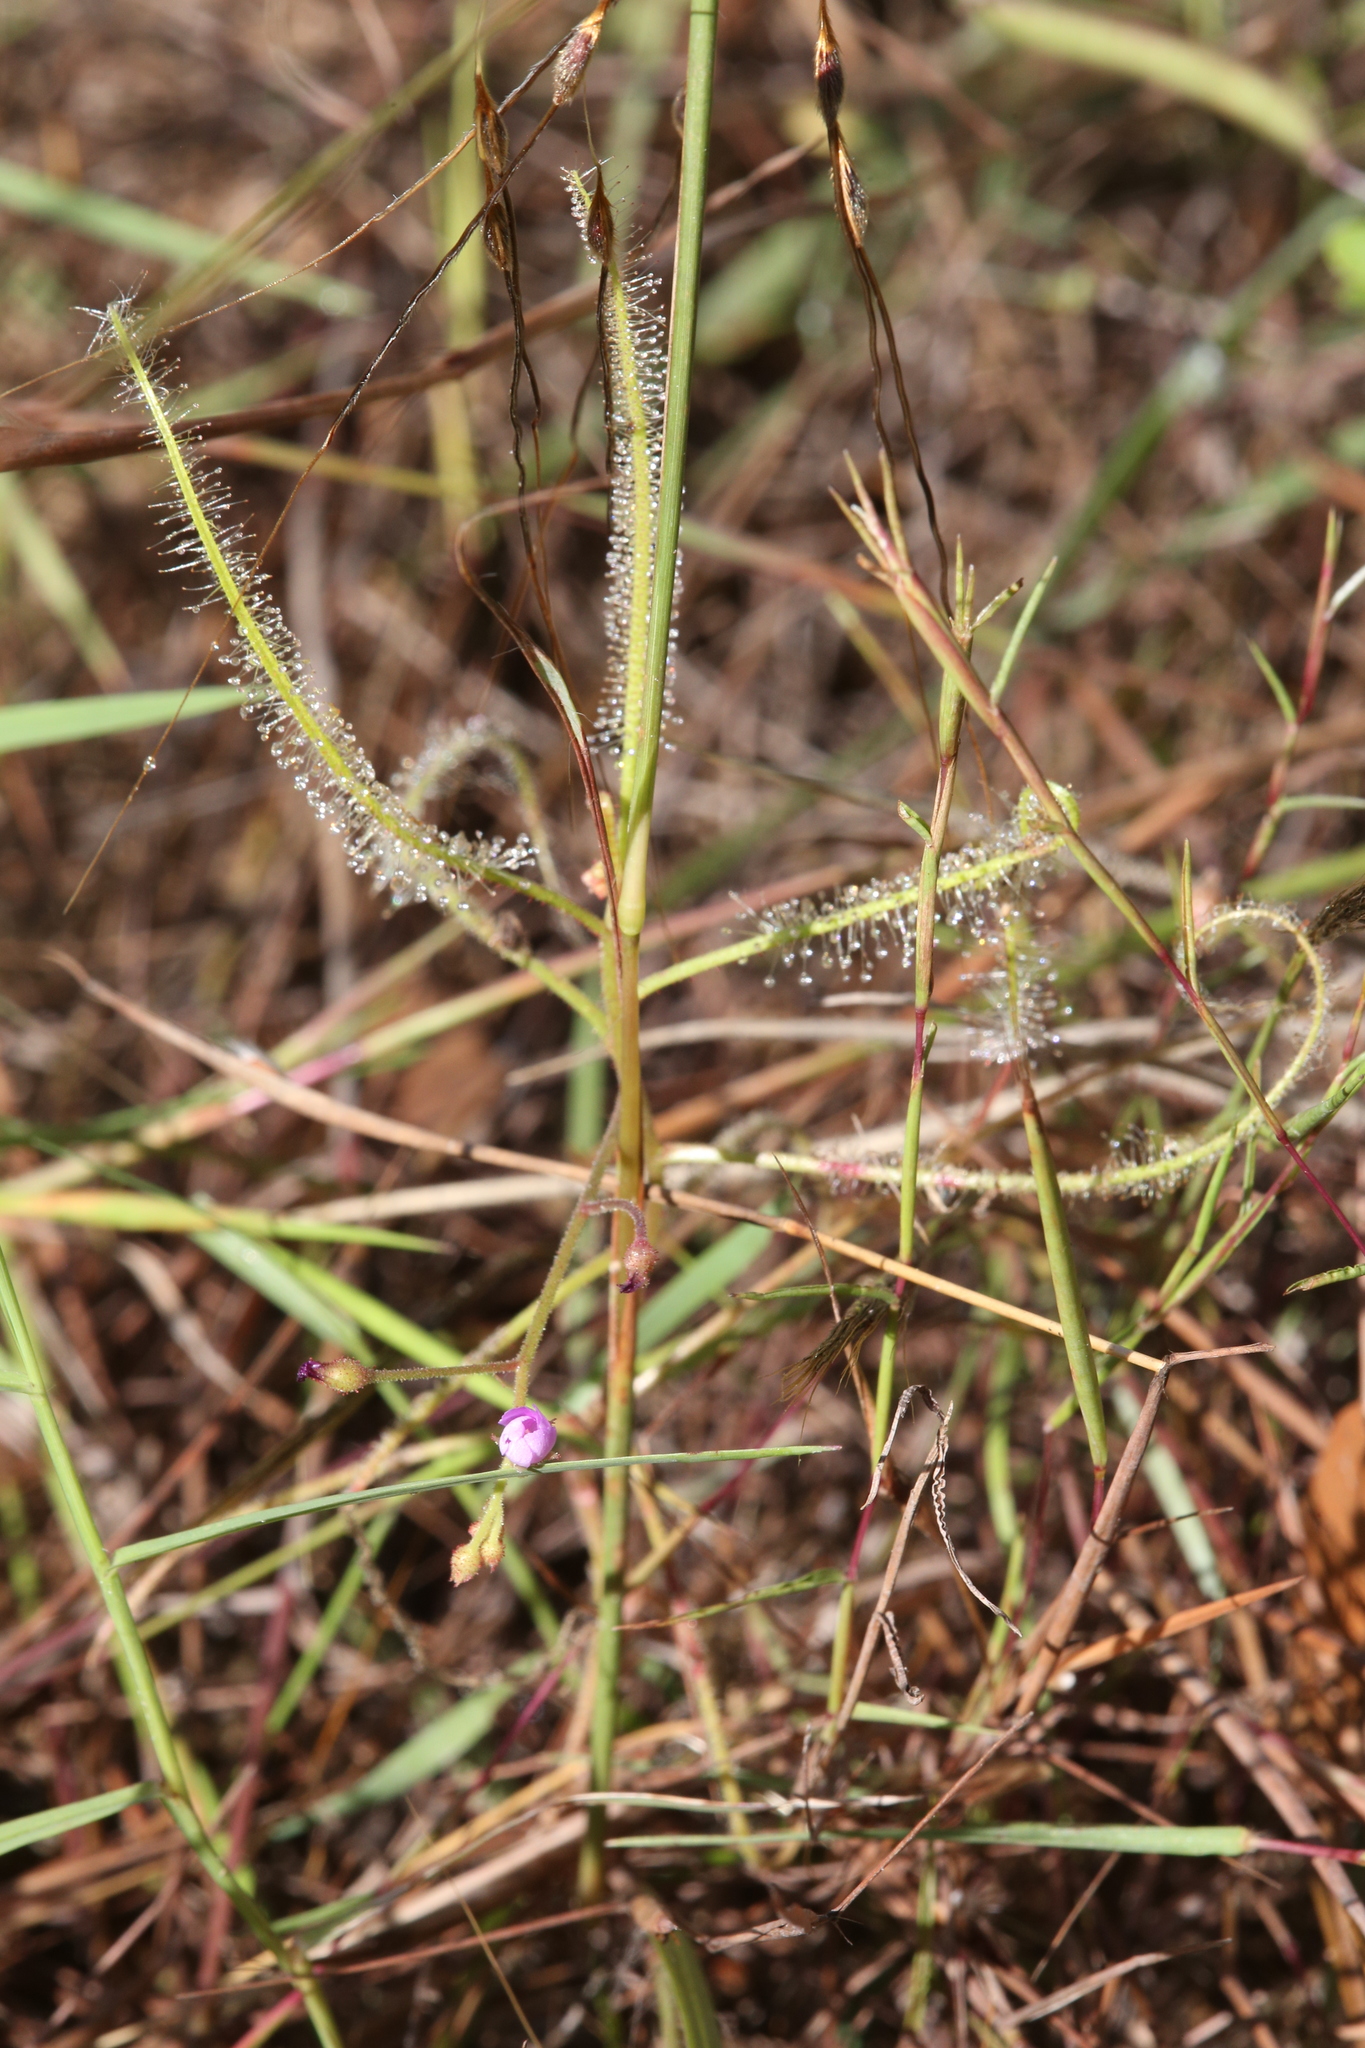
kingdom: Plantae
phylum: Tracheophyta
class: Magnoliopsida
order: Caryophyllales
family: Droseraceae
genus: Drosera
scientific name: Drosera indica
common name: Indian sundew
